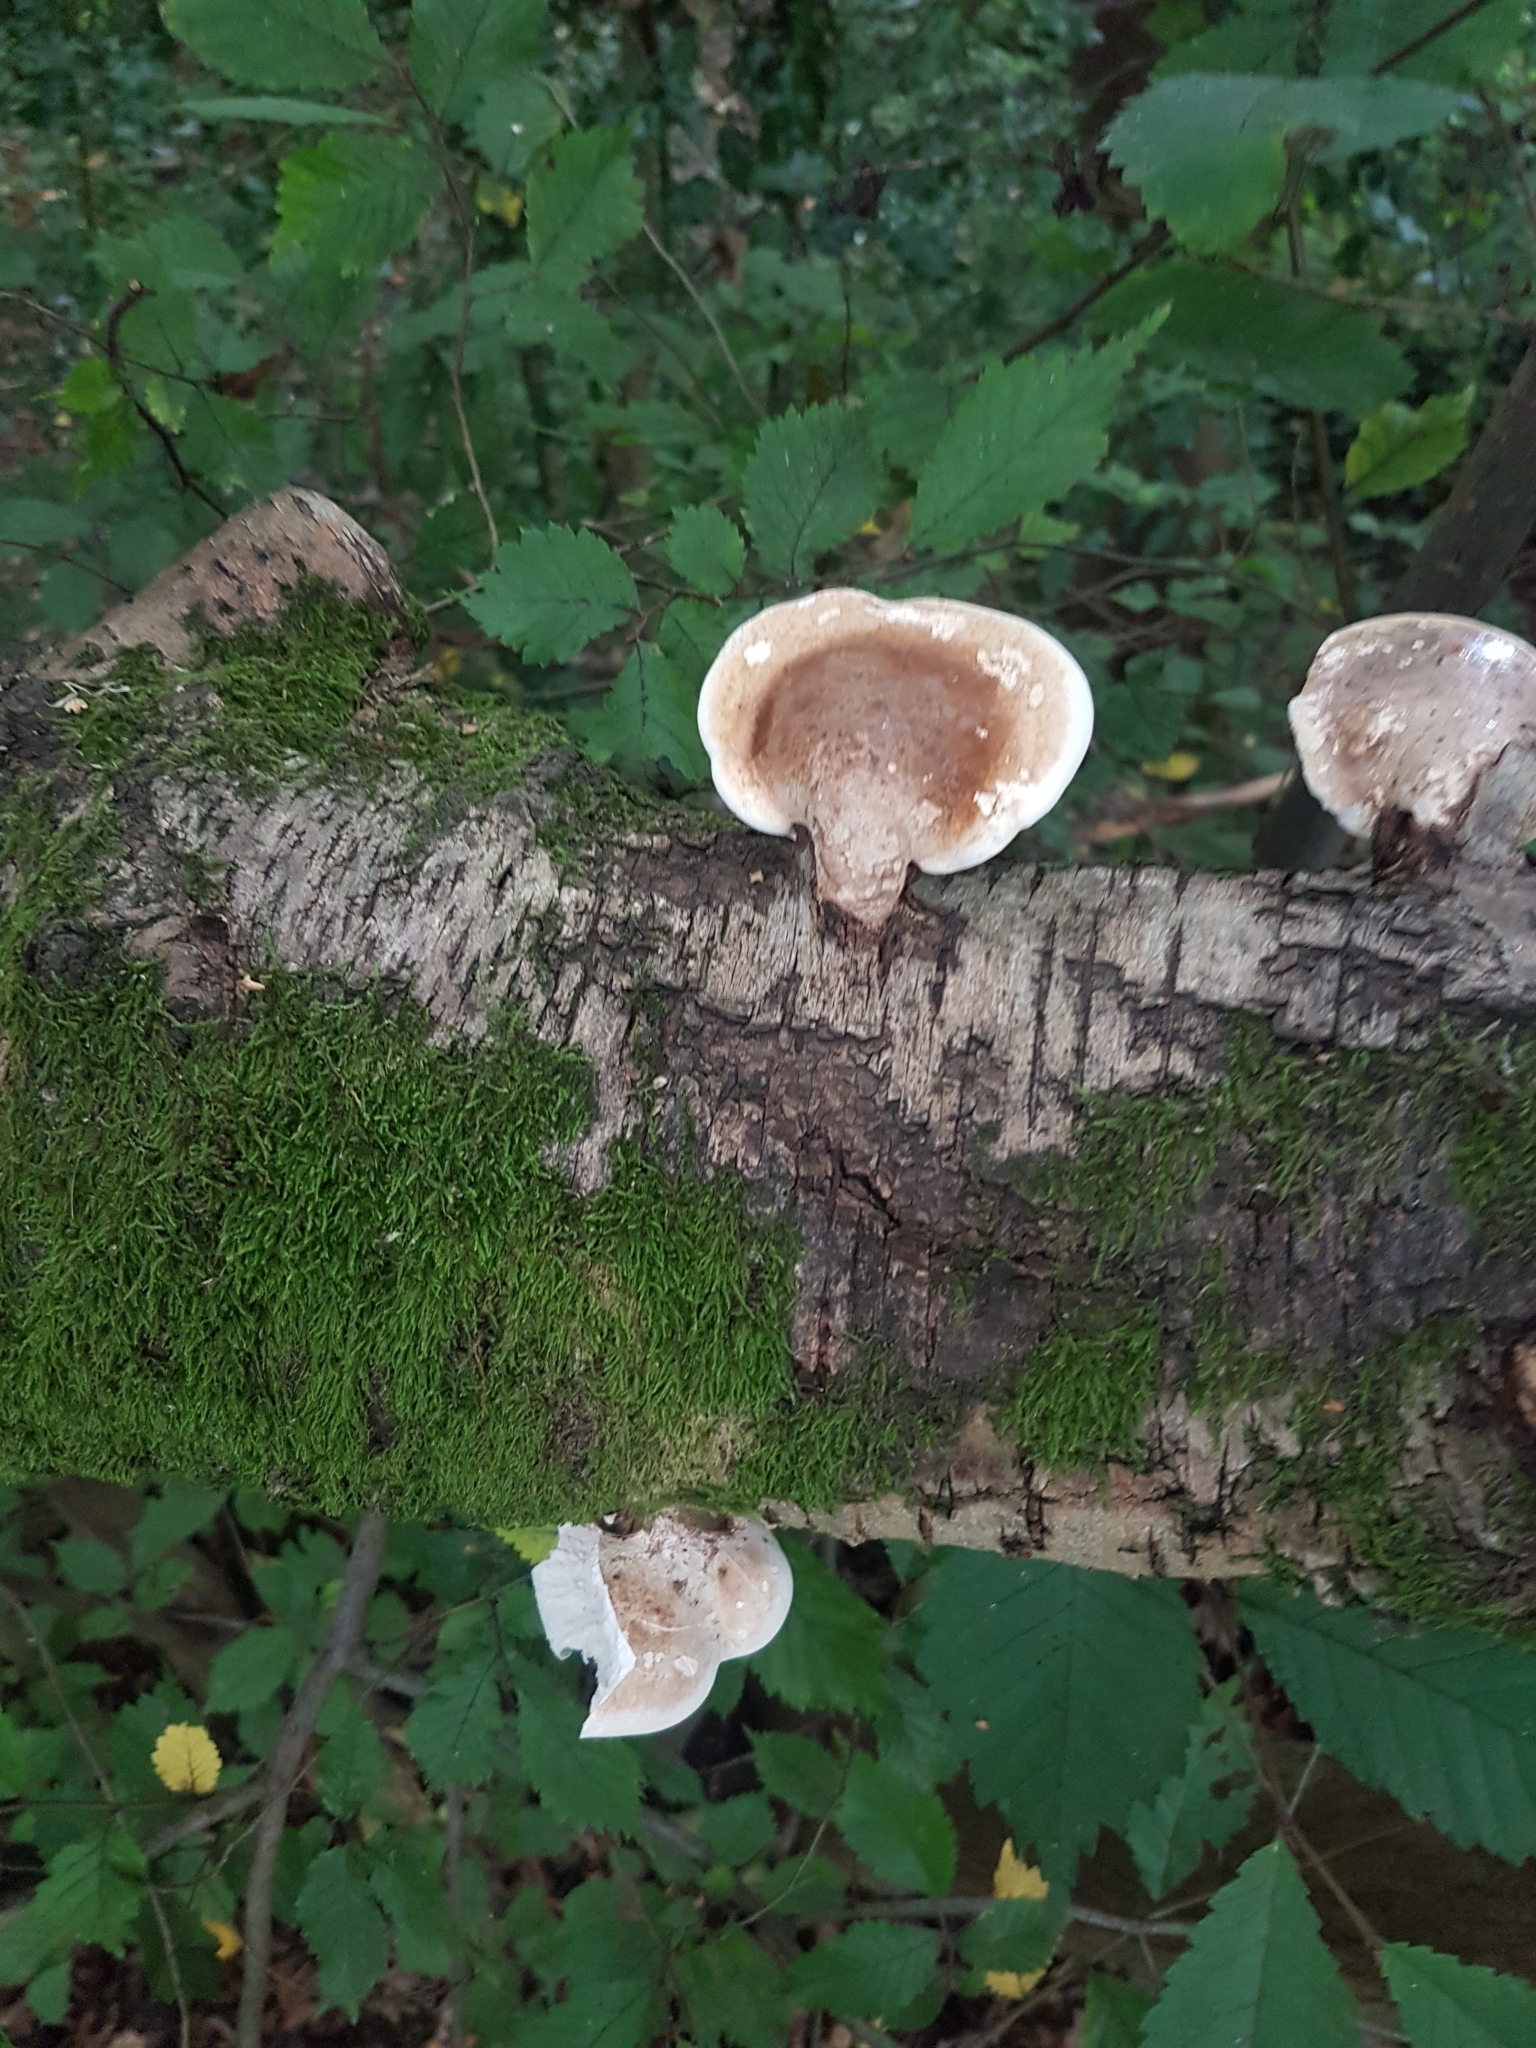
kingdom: Fungi
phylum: Basidiomycota
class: Agaricomycetes
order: Polyporales
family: Fomitopsidaceae
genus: Fomitopsis
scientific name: Fomitopsis betulina
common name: Birch polypore
